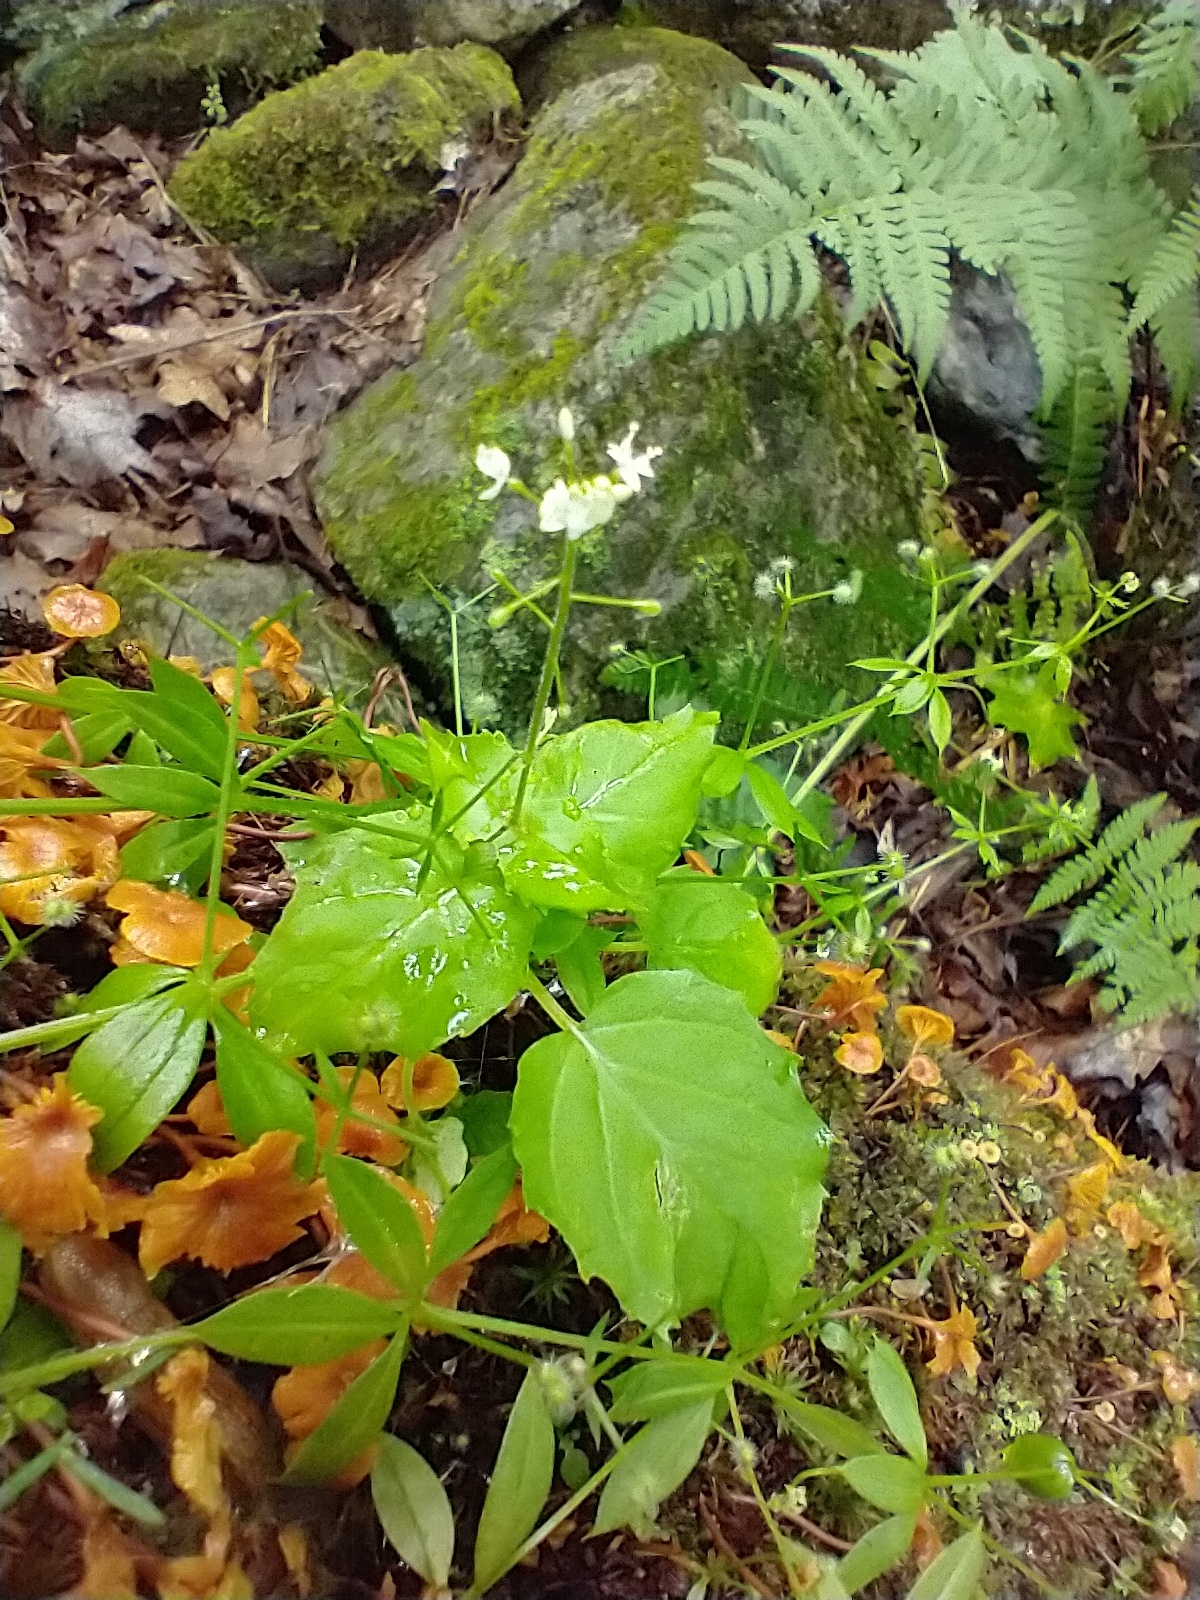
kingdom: Plantae
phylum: Tracheophyta
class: Magnoliopsida
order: Myrtales
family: Onagraceae
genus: Circaea
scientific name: Circaea alpina
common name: Alpine enchanter's-nightshade
